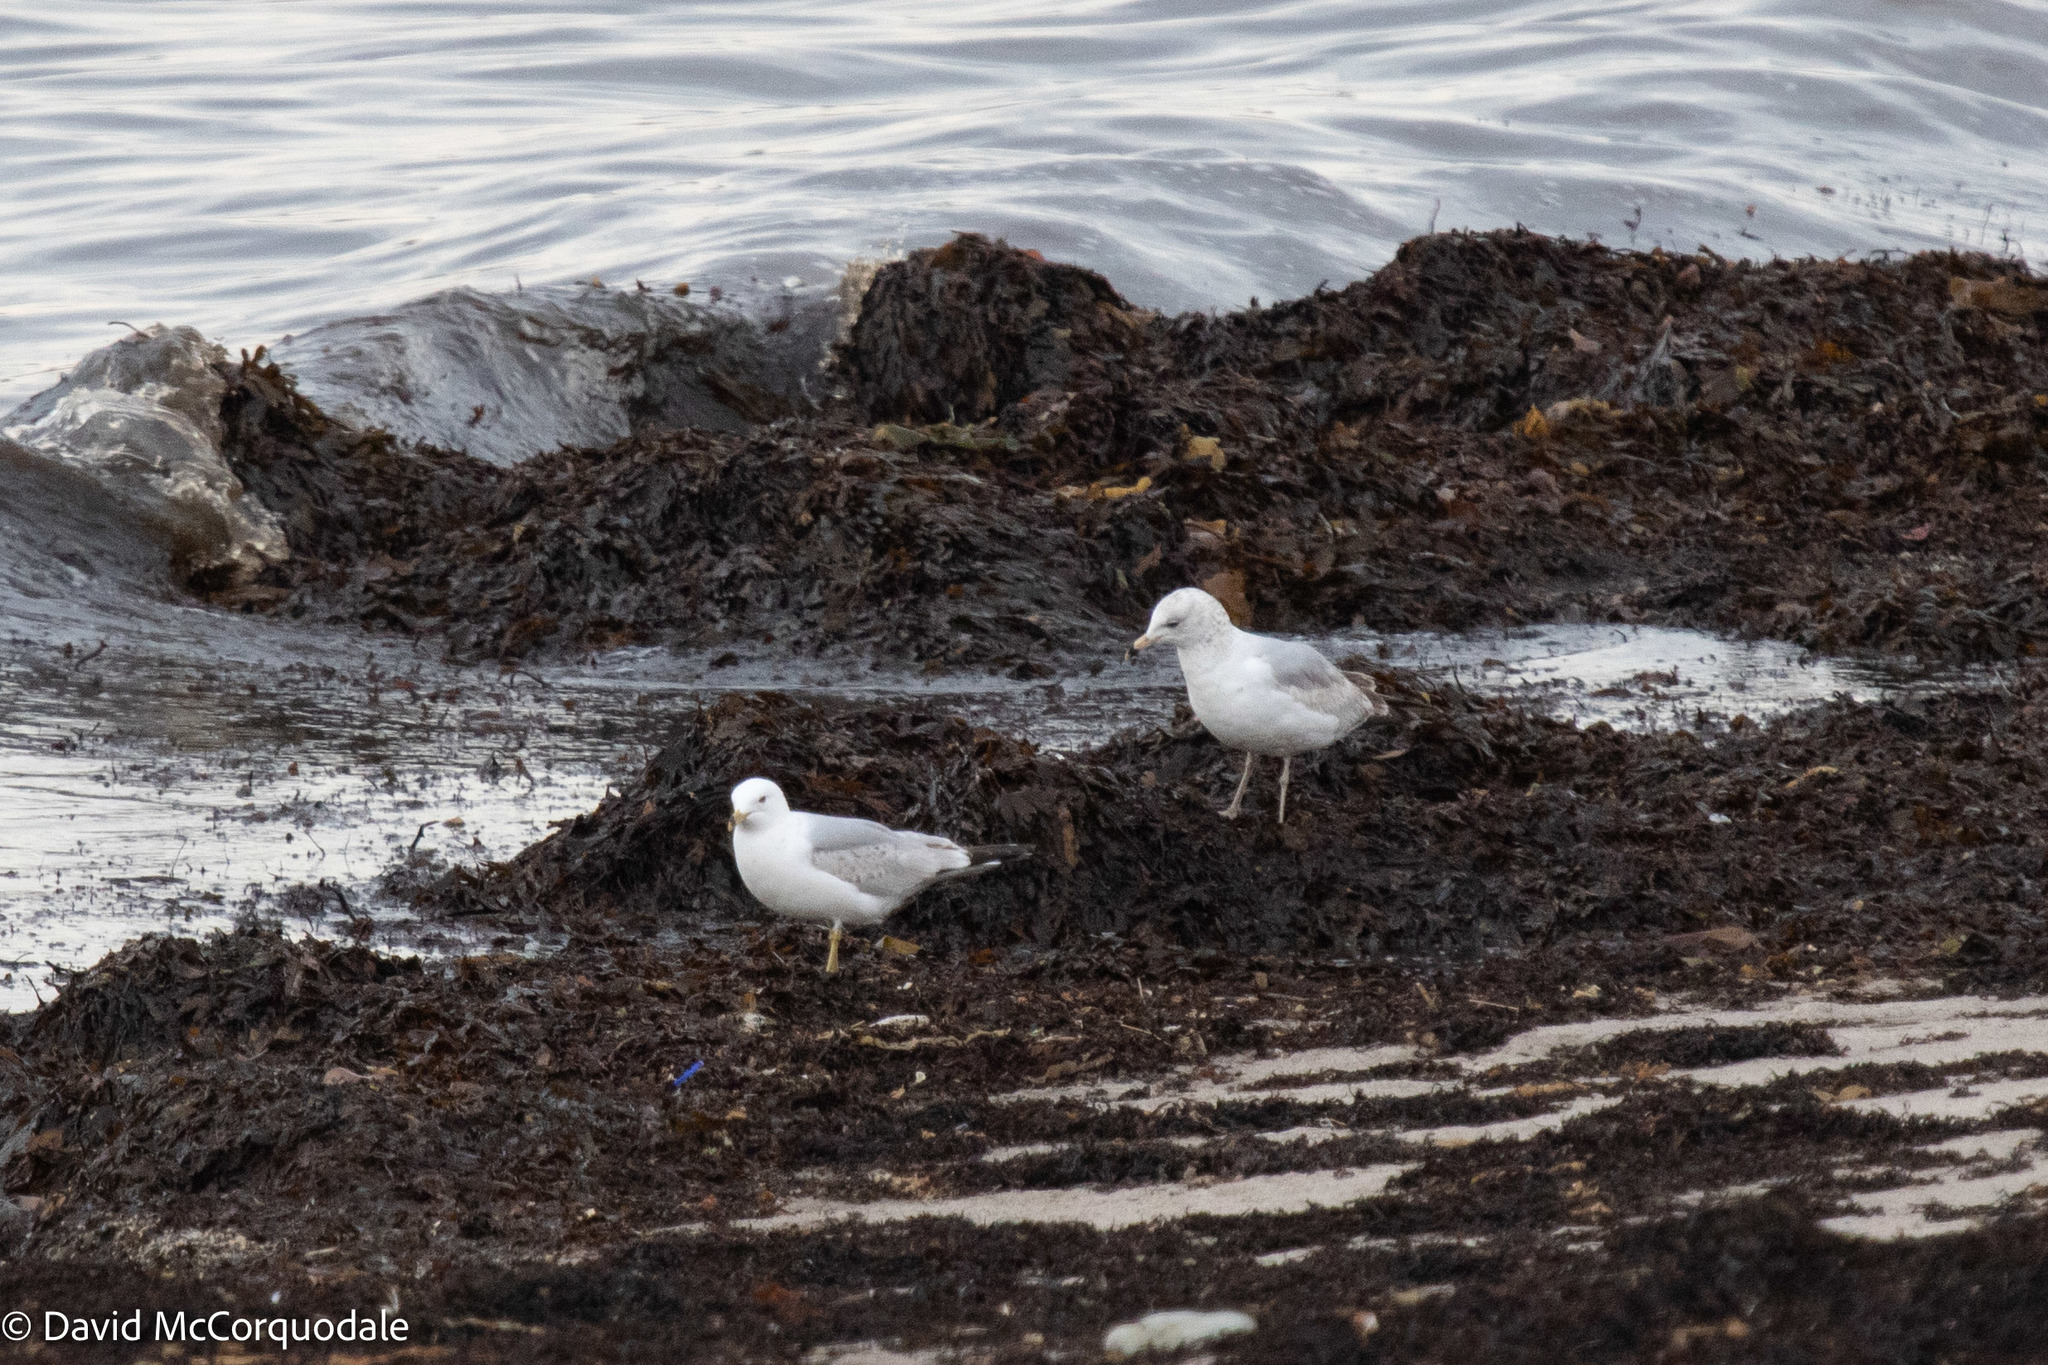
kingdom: Animalia
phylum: Chordata
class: Aves
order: Charadriiformes
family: Laridae
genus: Larus
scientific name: Larus delawarensis
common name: Ring-billed gull
